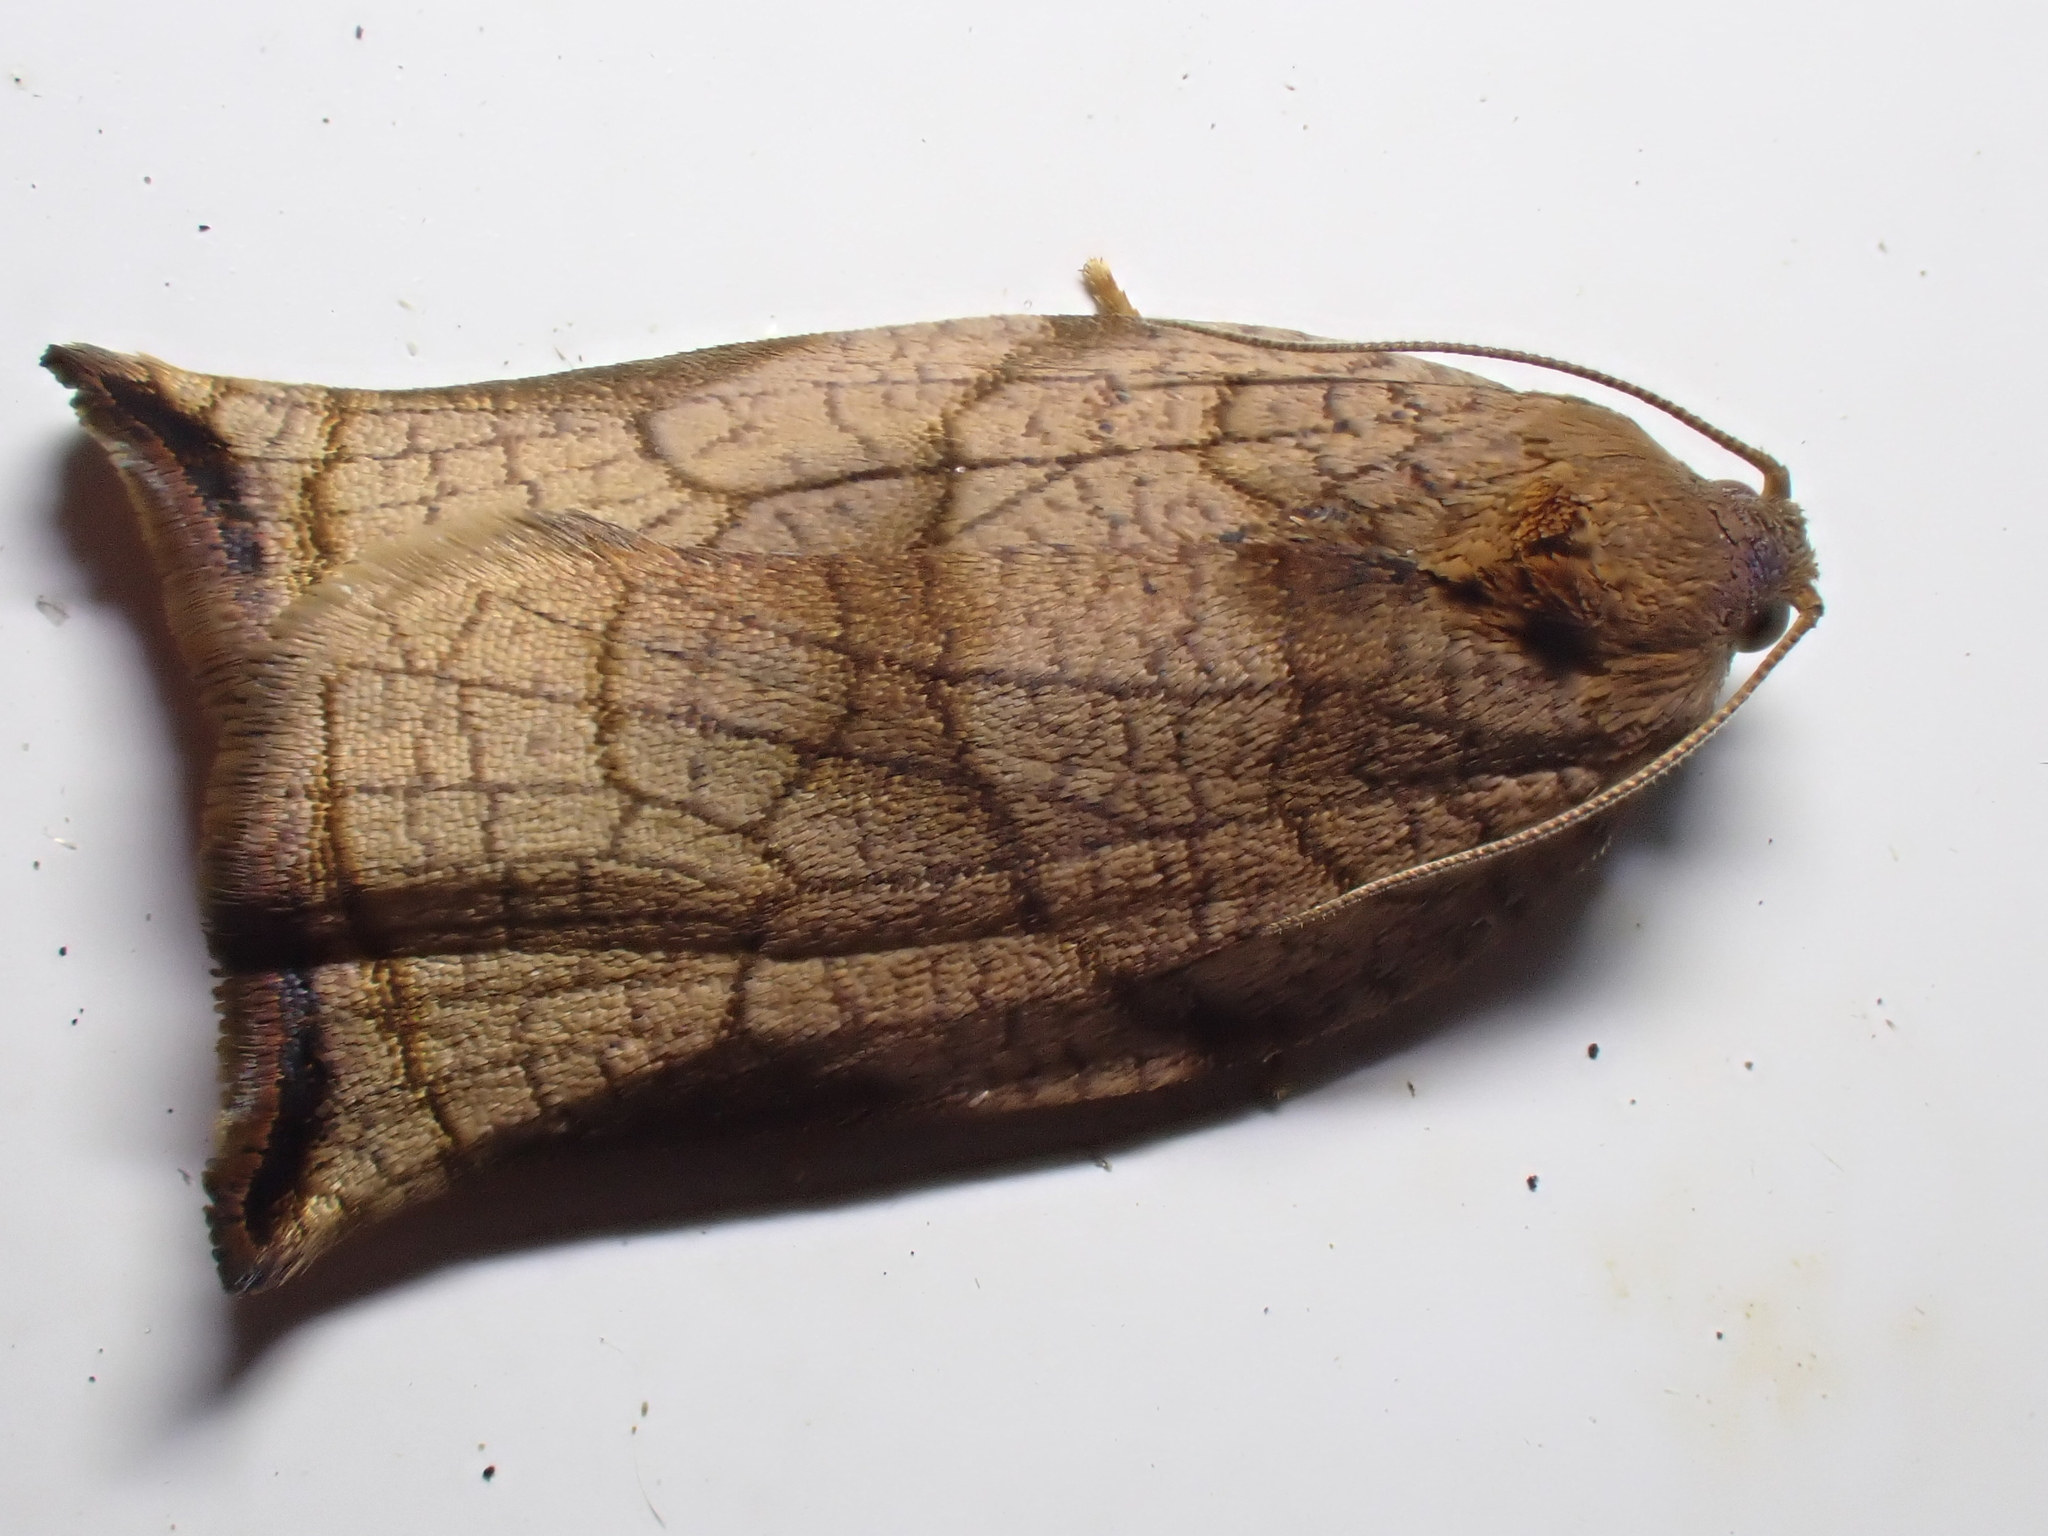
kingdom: Animalia
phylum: Arthropoda
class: Insecta
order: Lepidoptera
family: Tortricidae
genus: Archips
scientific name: Archips podana
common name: Large fruit-tree tortrix
